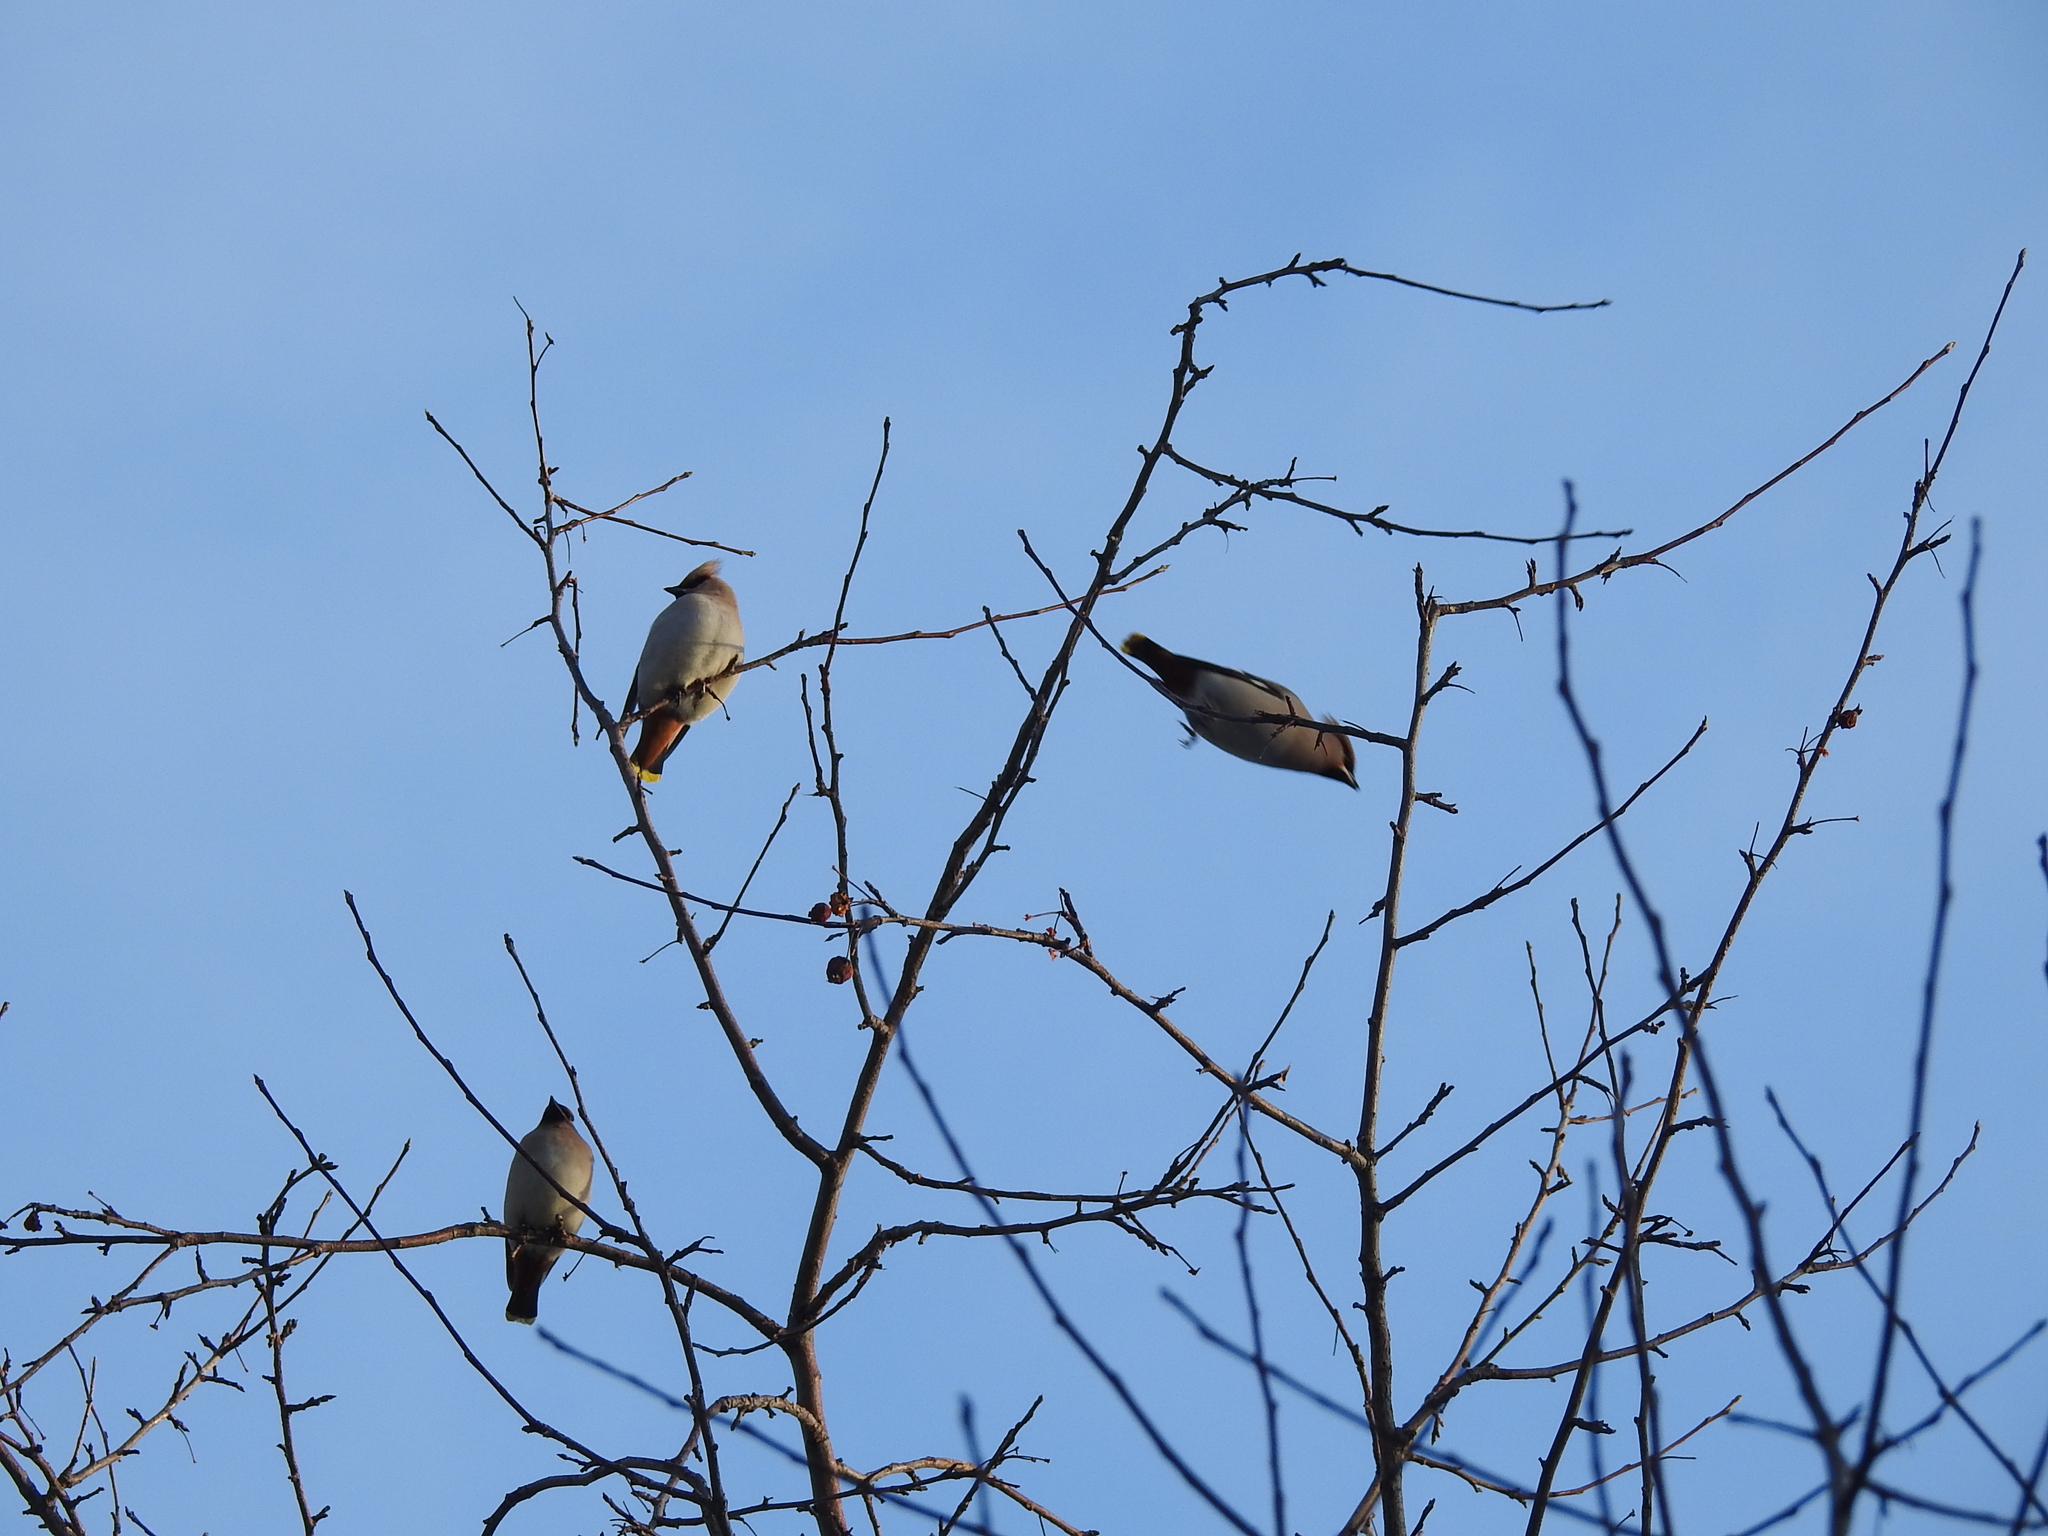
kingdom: Animalia
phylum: Chordata
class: Aves
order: Passeriformes
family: Bombycillidae
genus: Bombycilla
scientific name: Bombycilla garrulus
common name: Bohemian waxwing
